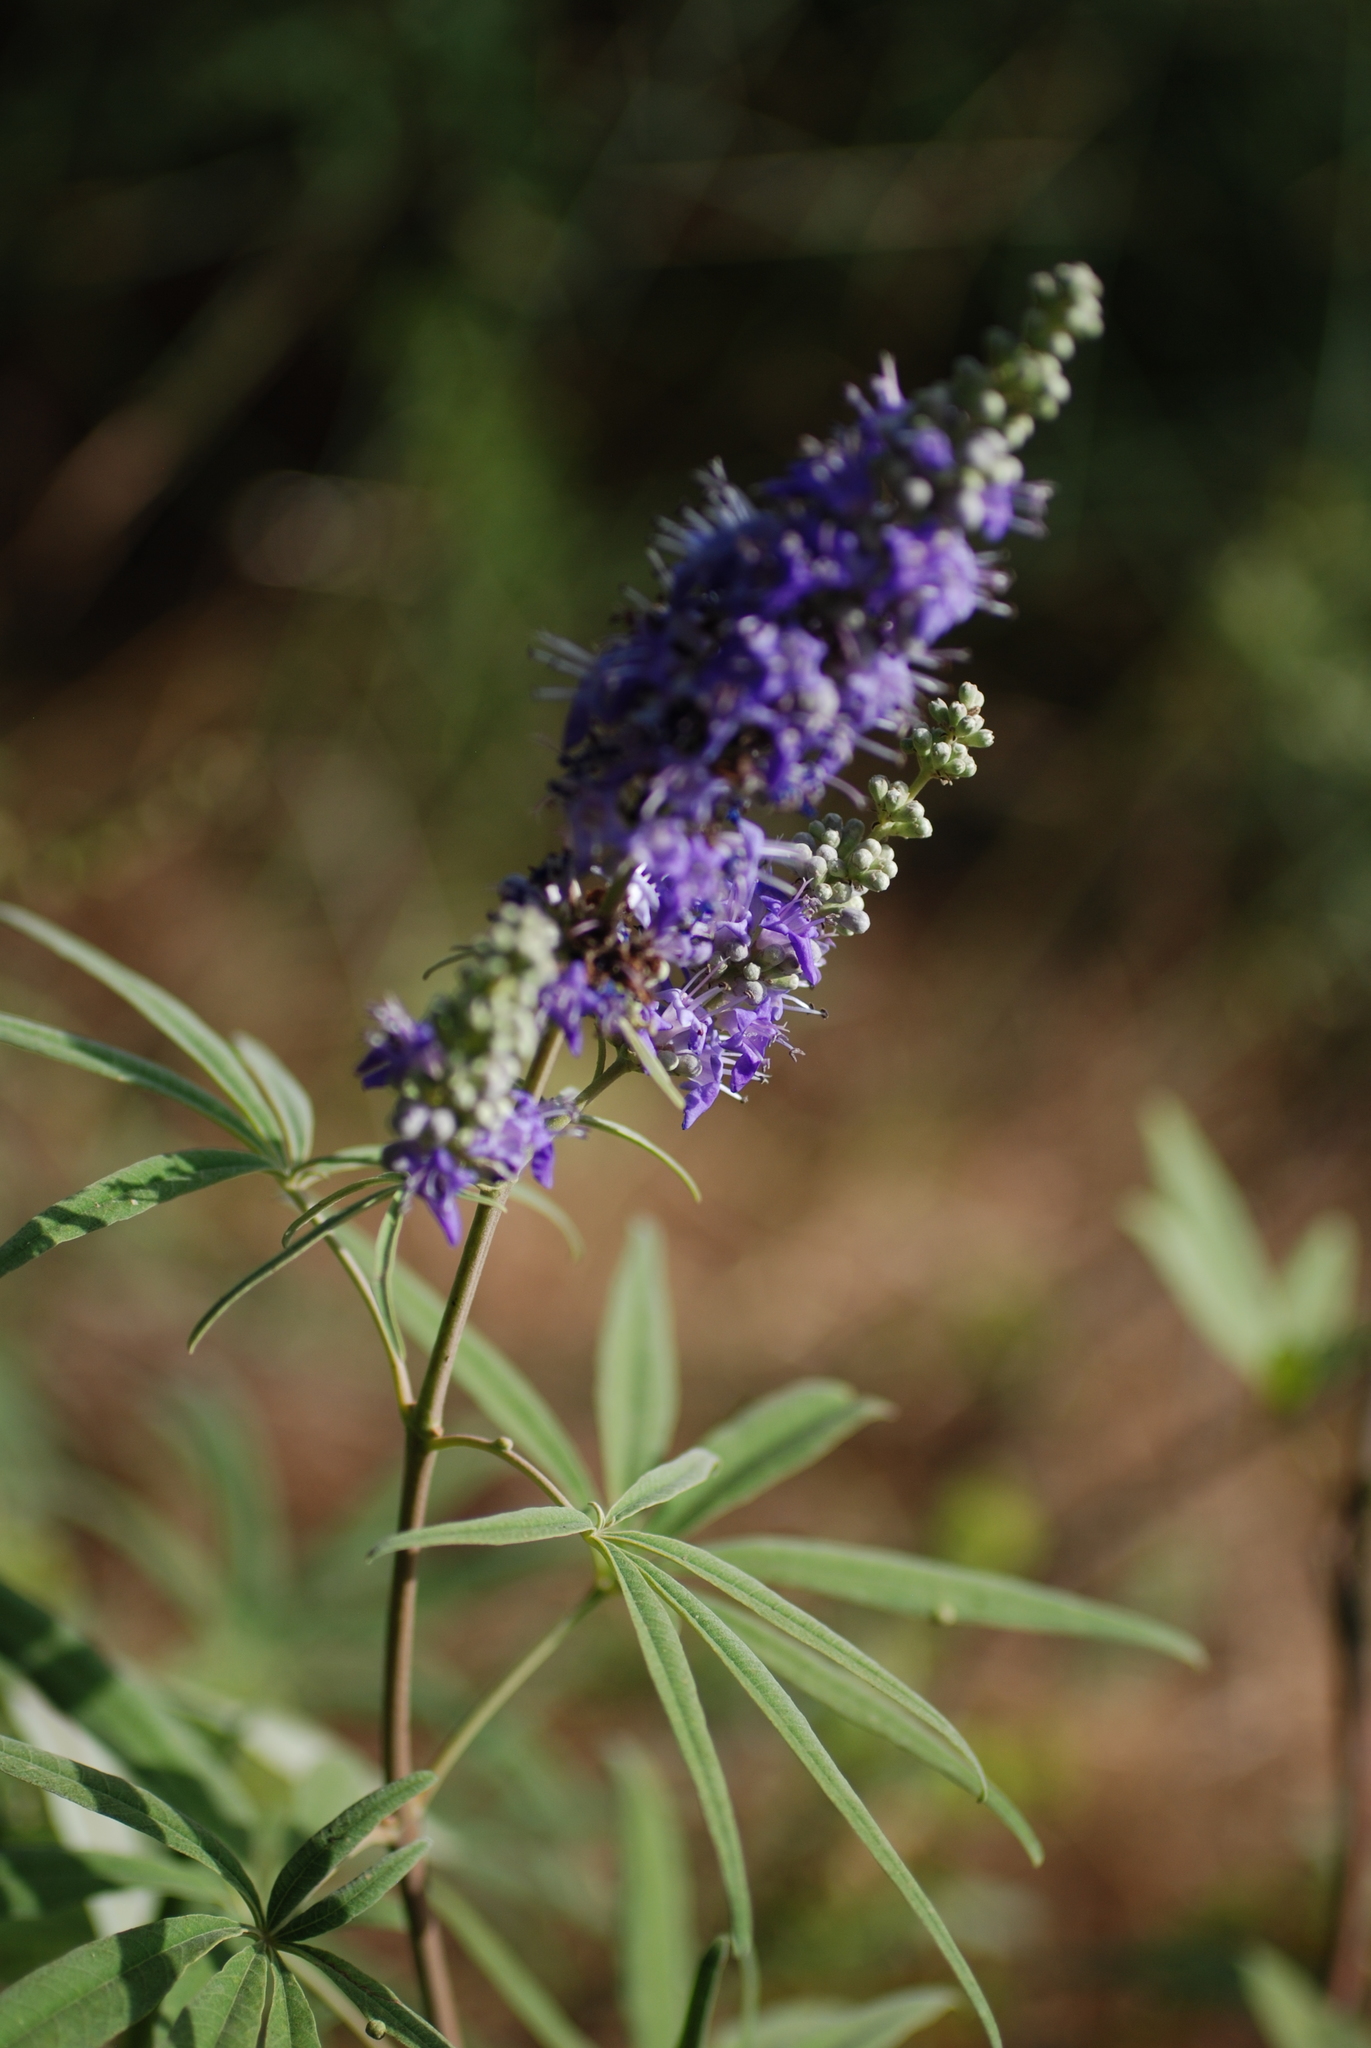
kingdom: Plantae
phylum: Tracheophyta
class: Magnoliopsida
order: Lamiales
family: Lamiaceae
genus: Vitex
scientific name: Vitex agnus-castus
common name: Chasteberry
